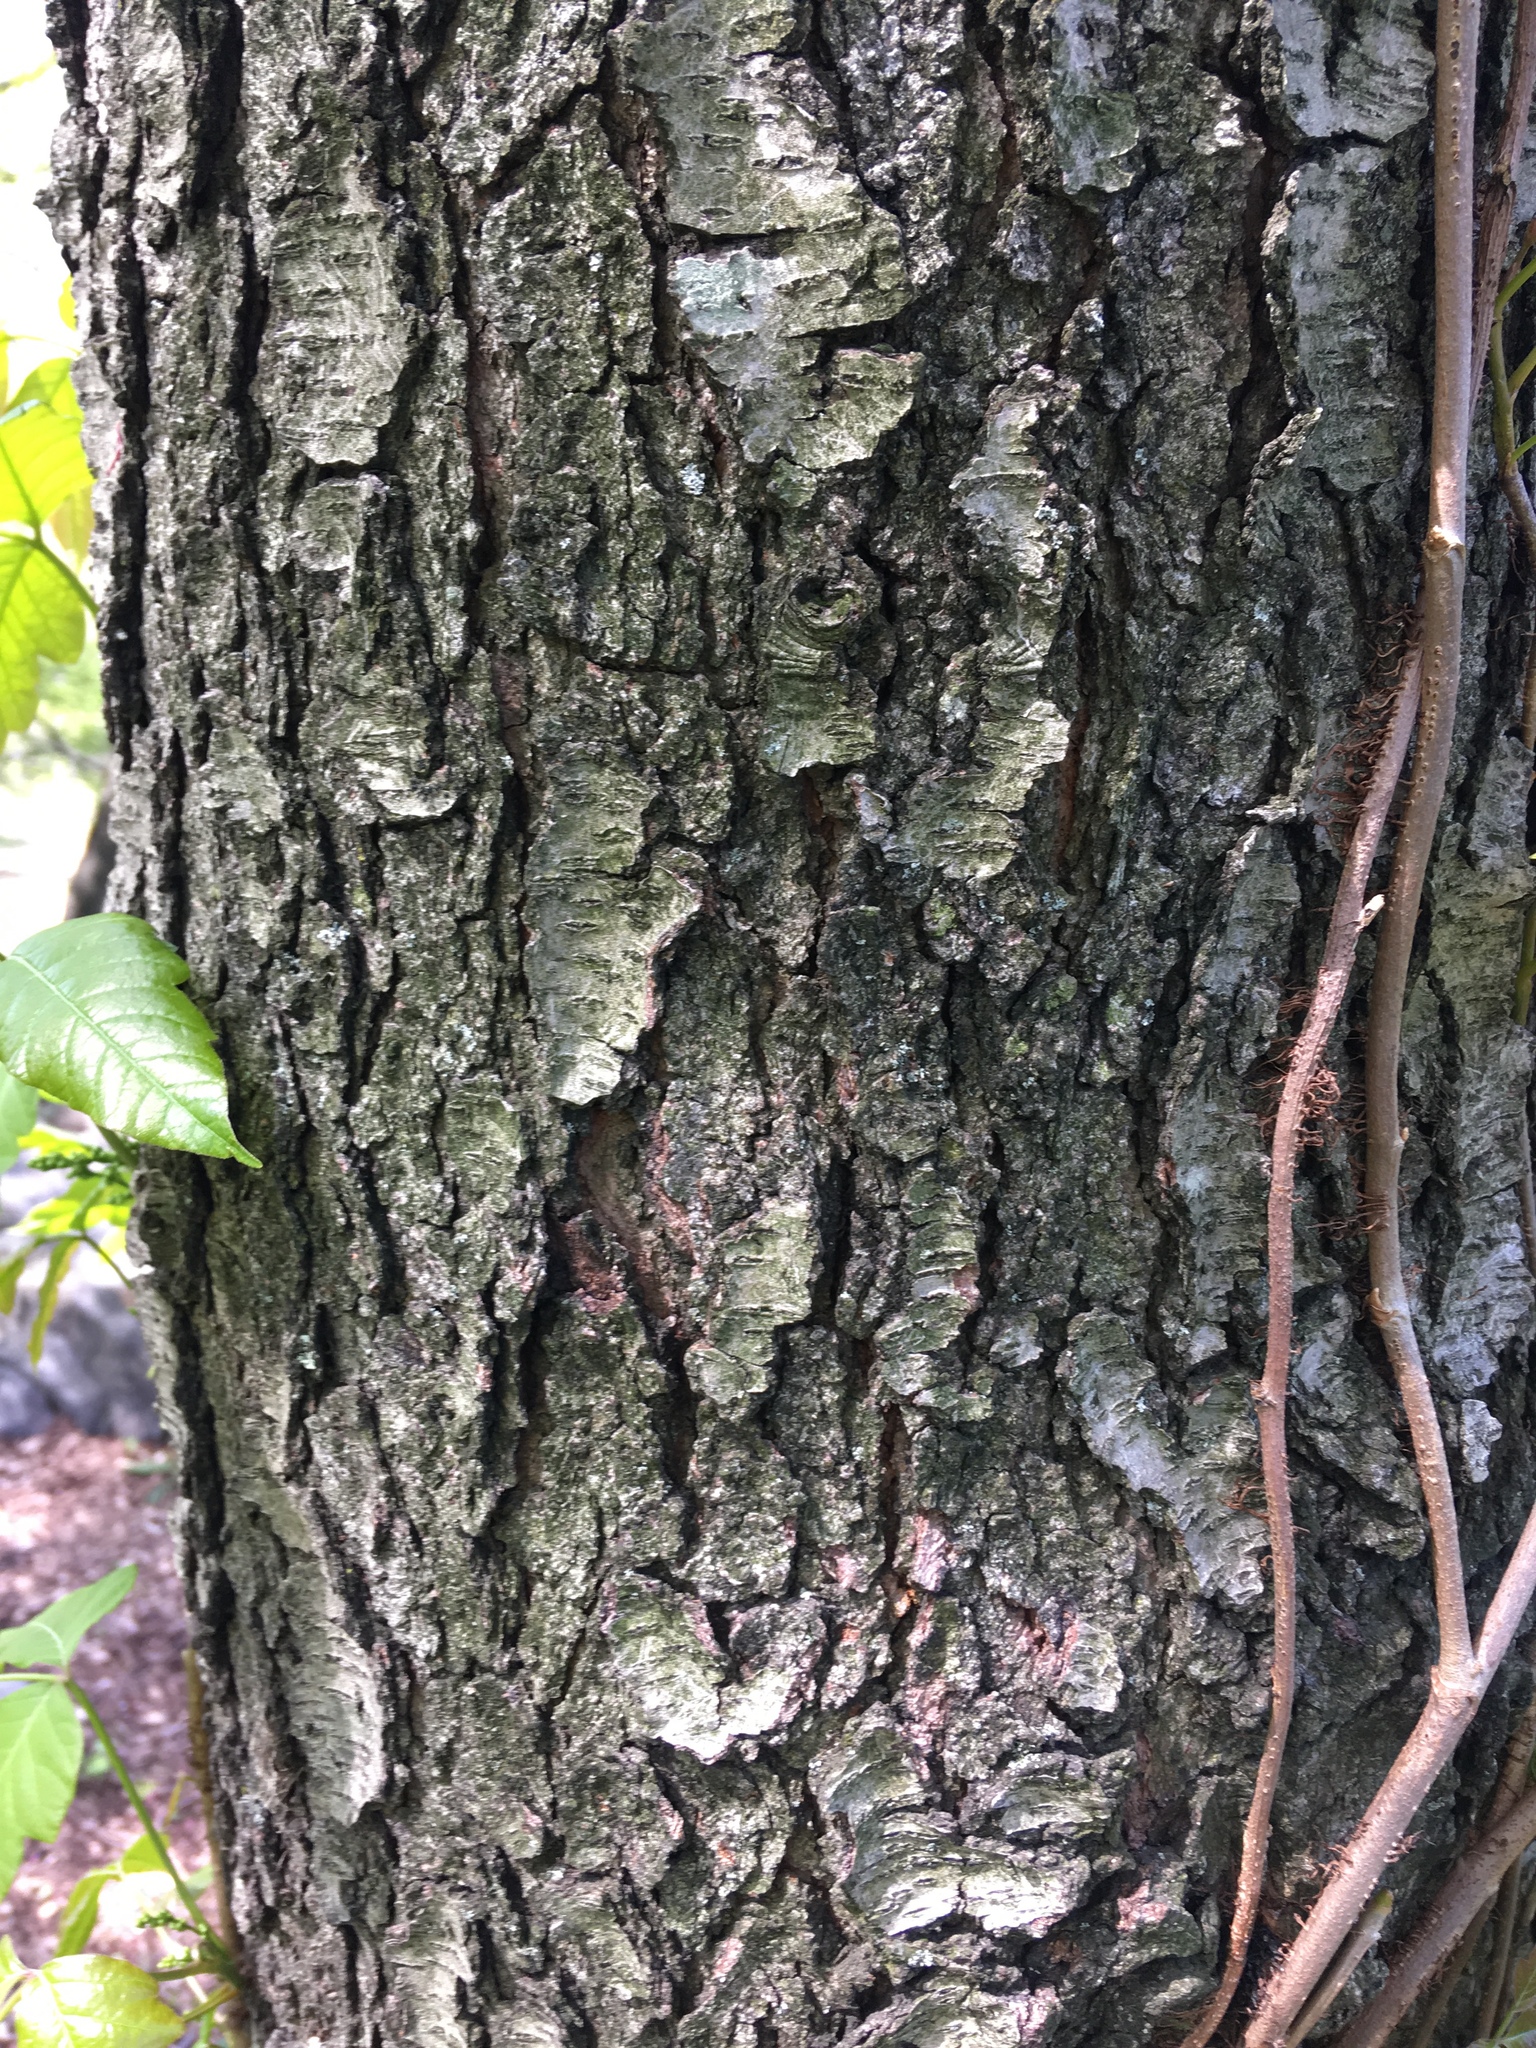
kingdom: Plantae
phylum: Tracheophyta
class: Magnoliopsida
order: Rosales
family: Rosaceae
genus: Prunus
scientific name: Prunus serotina
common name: Black cherry
